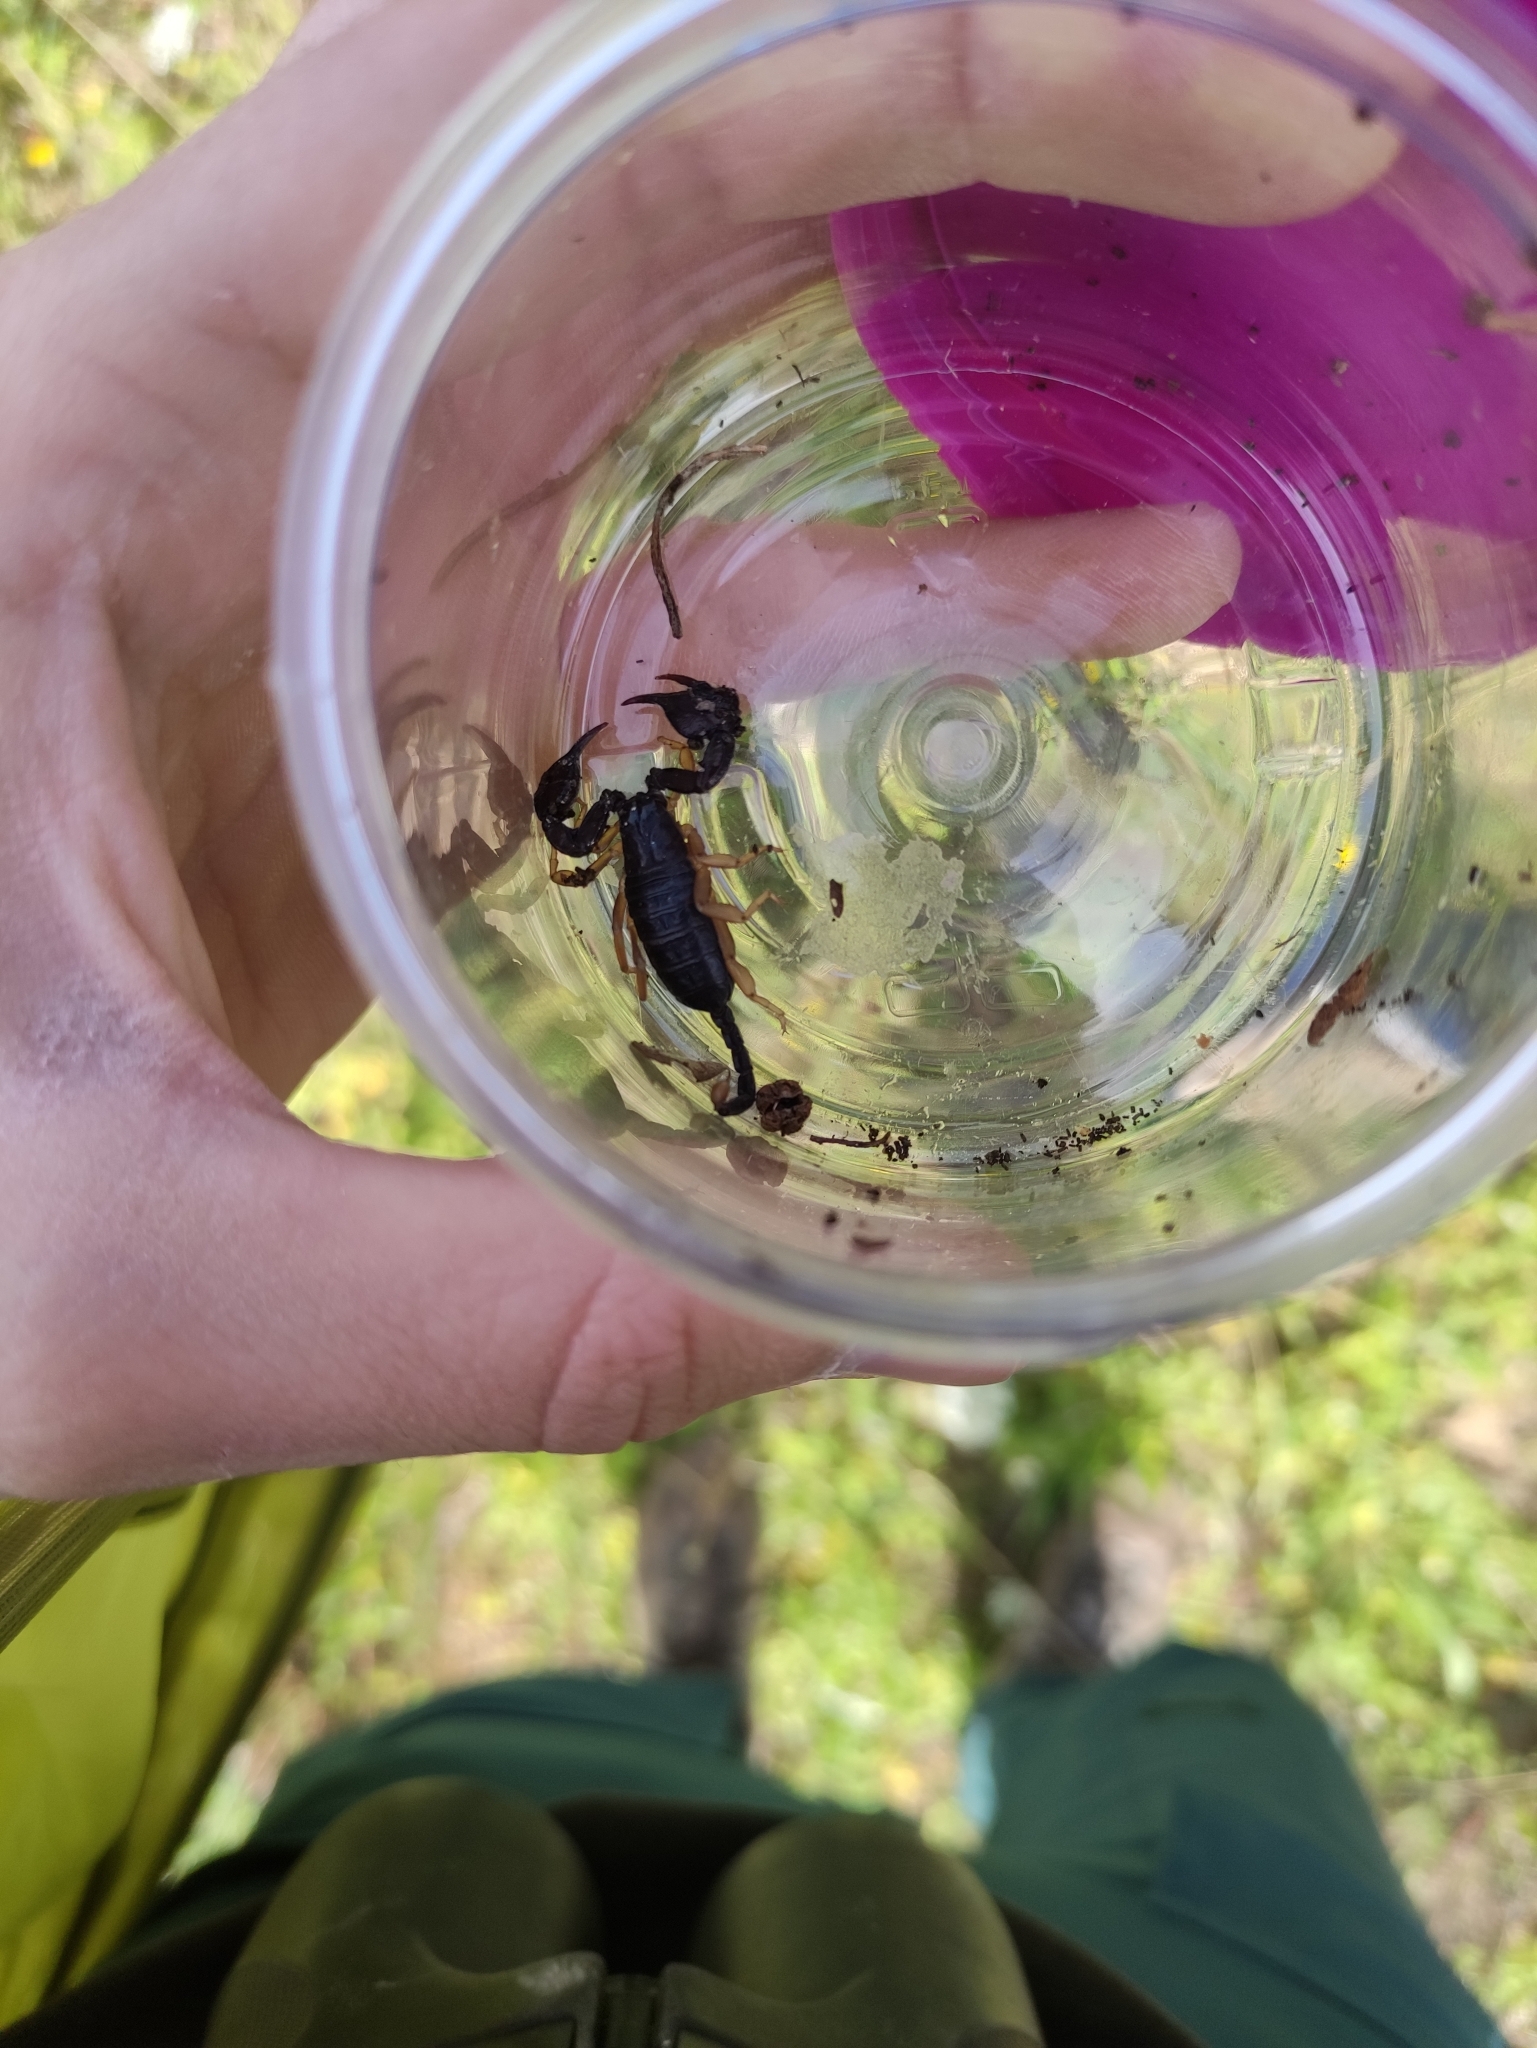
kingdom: Animalia
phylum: Arthropoda
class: Arachnida
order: Scorpiones
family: Euscorpiidae
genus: Euscorpius
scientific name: Euscorpius flavicaudis
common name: European yellow-tailed scorpion
